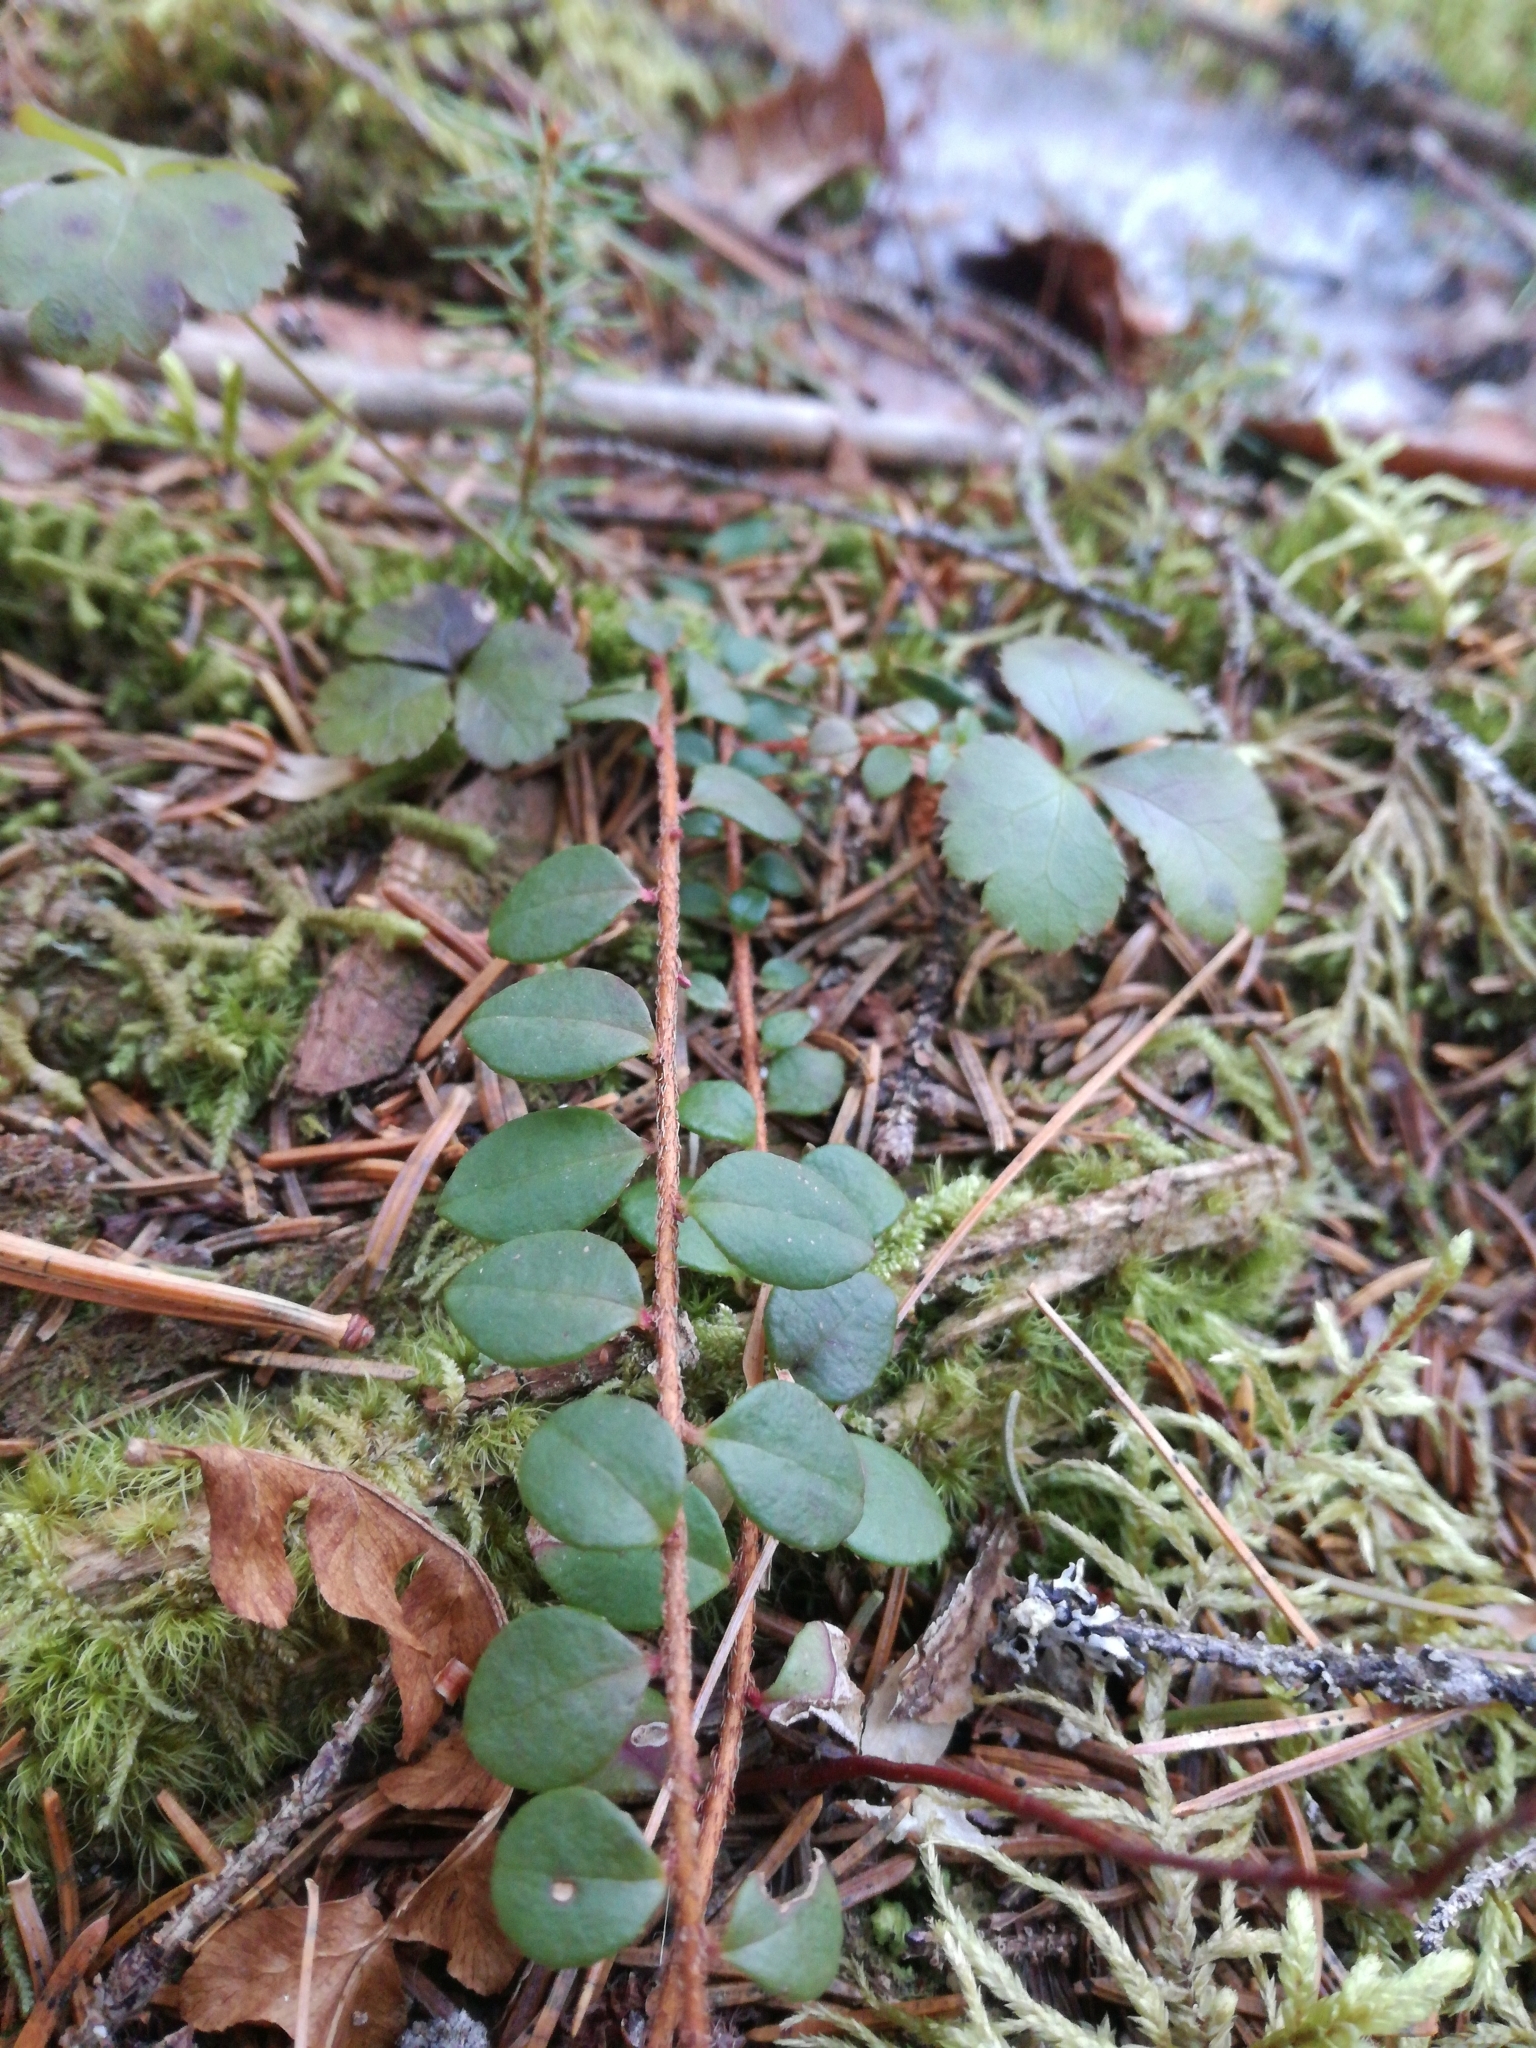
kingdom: Plantae
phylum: Tracheophyta
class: Magnoliopsida
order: Ericales
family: Ericaceae
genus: Gaultheria
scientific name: Gaultheria hispidula
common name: Cancer wintergreen
